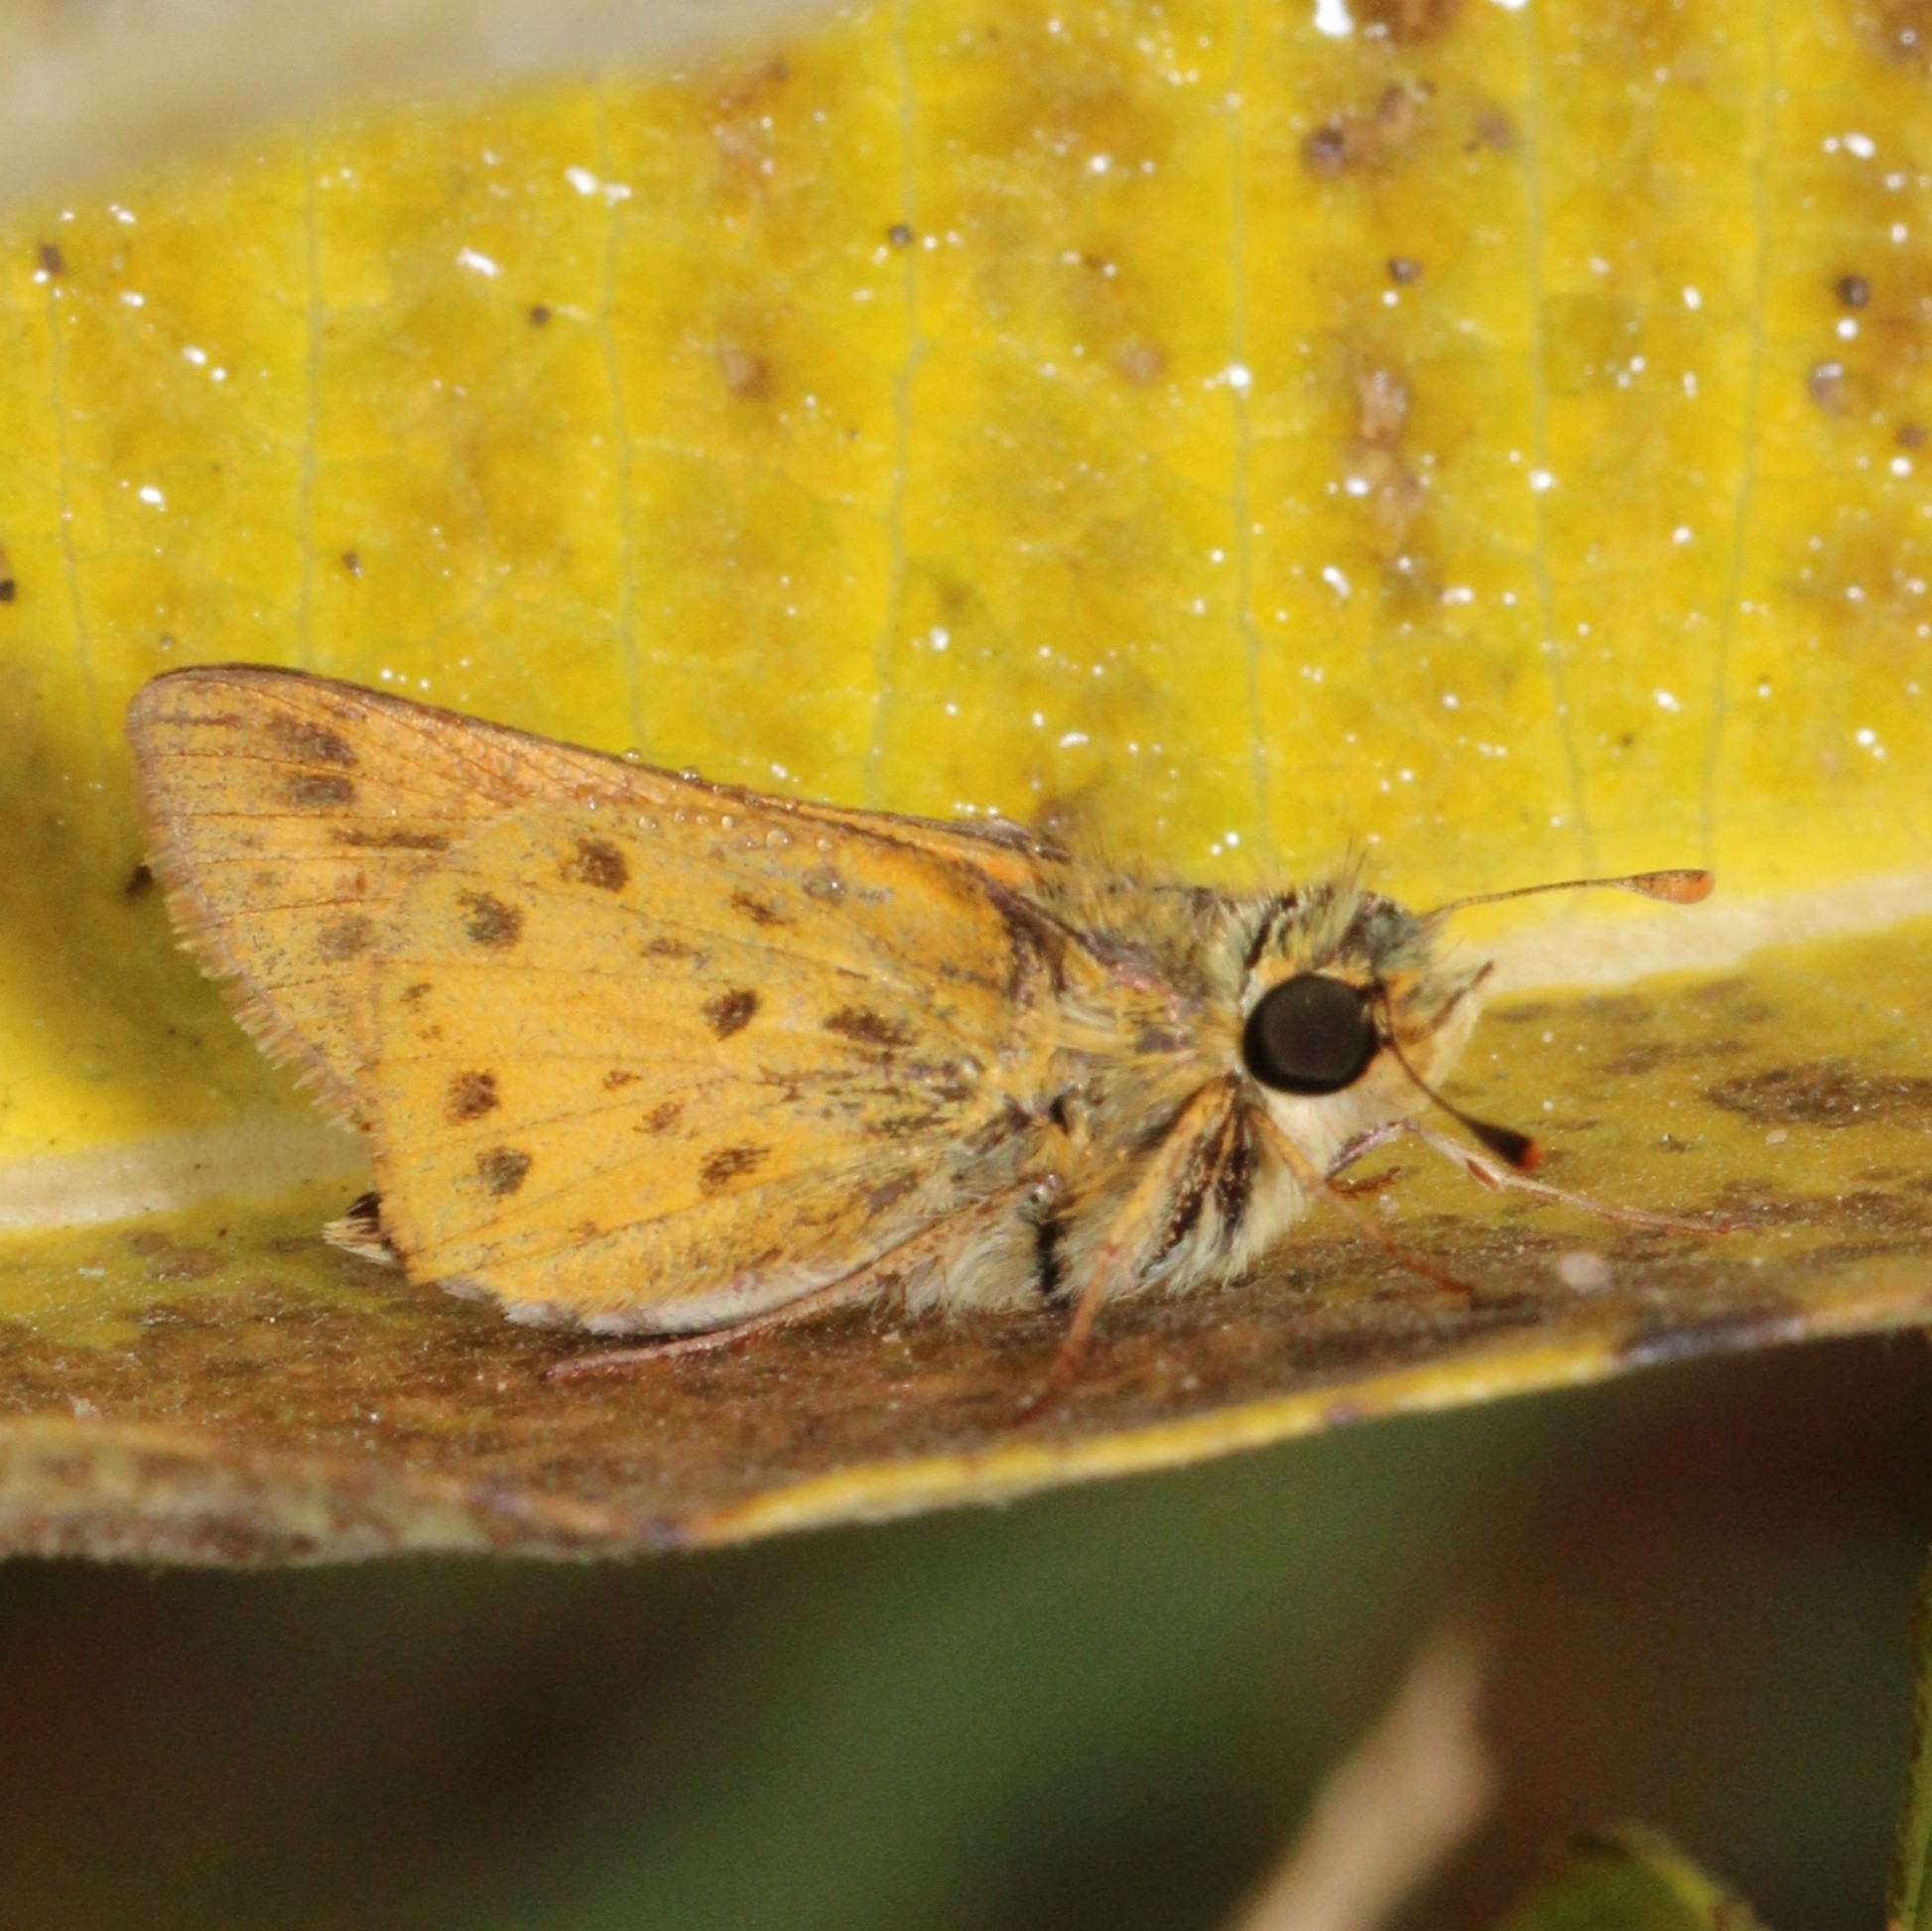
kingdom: Animalia
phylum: Arthropoda
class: Insecta
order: Lepidoptera
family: Hesperiidae
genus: Hylephila
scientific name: Hylephila phyleus
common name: Fiery skipper
